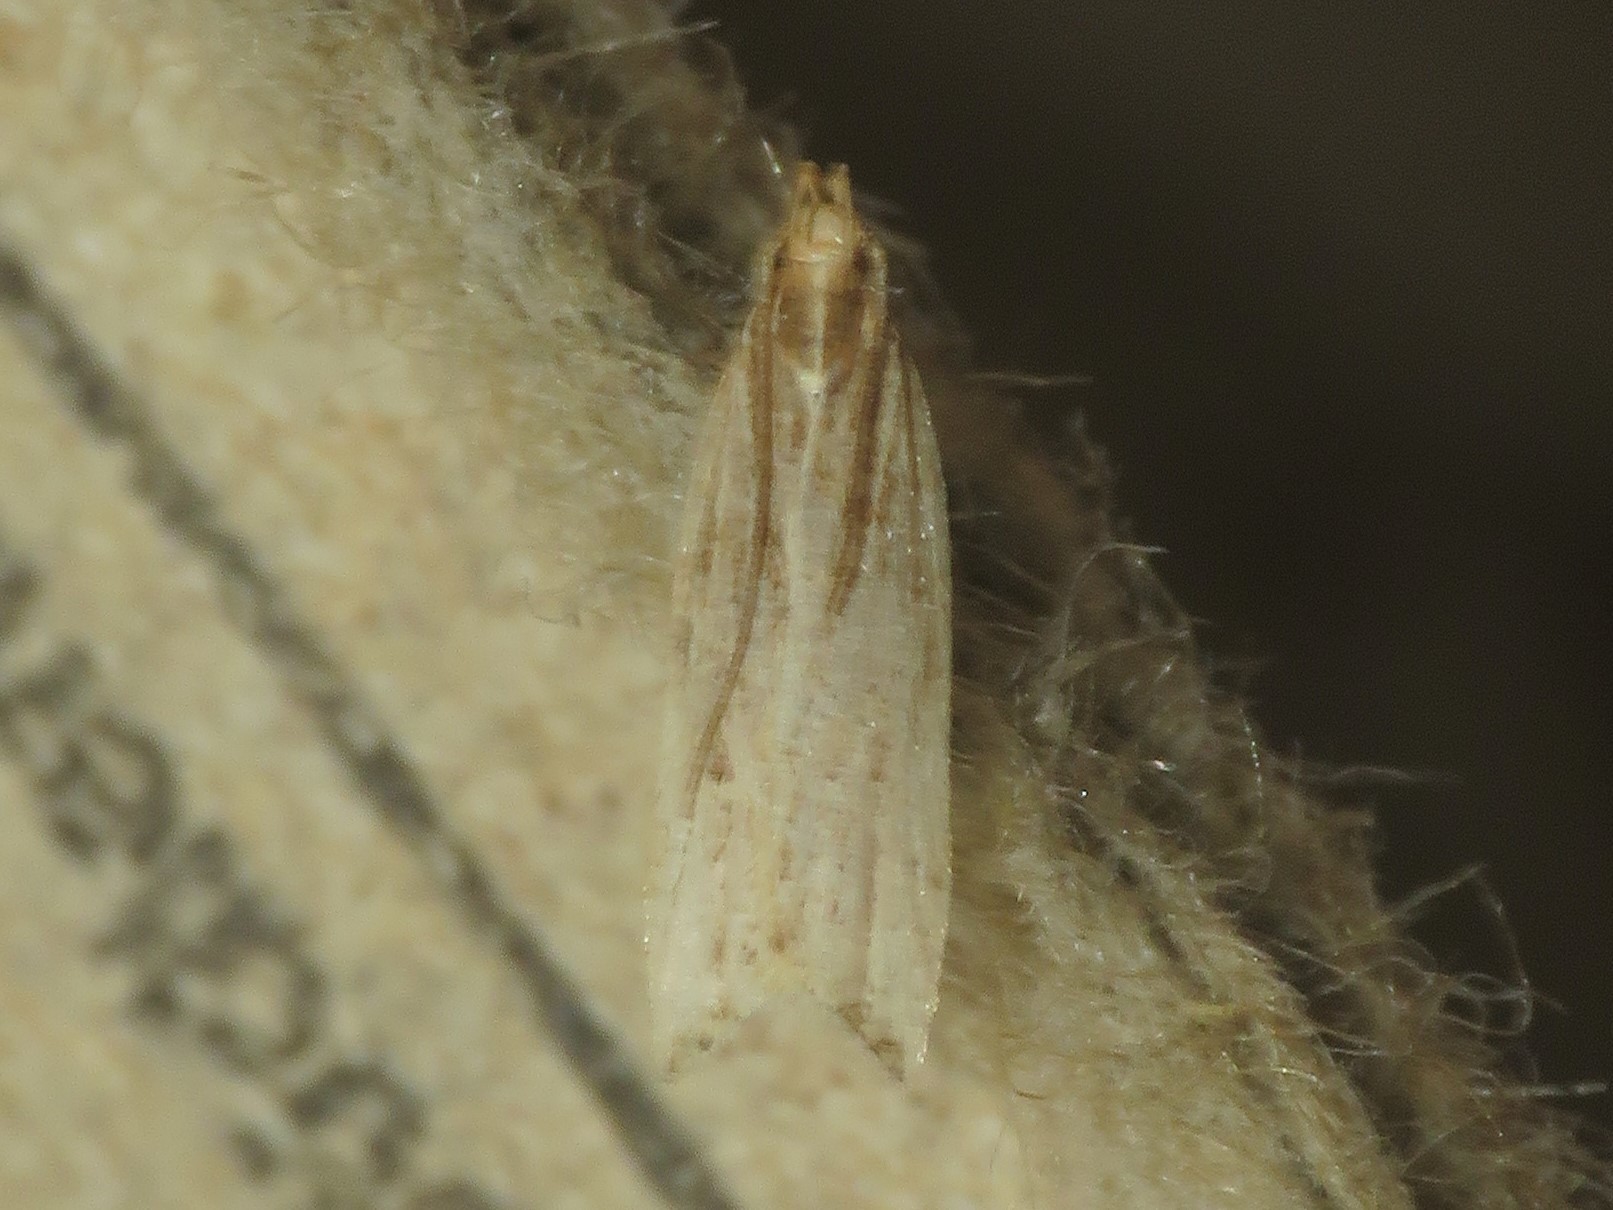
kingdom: Animalia
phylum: Arthropoda
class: Insecta
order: Lepidoptera
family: Gelechiidae
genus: Helcystogramma
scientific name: Helcystogramma hystricella
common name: Lanceolate moth
